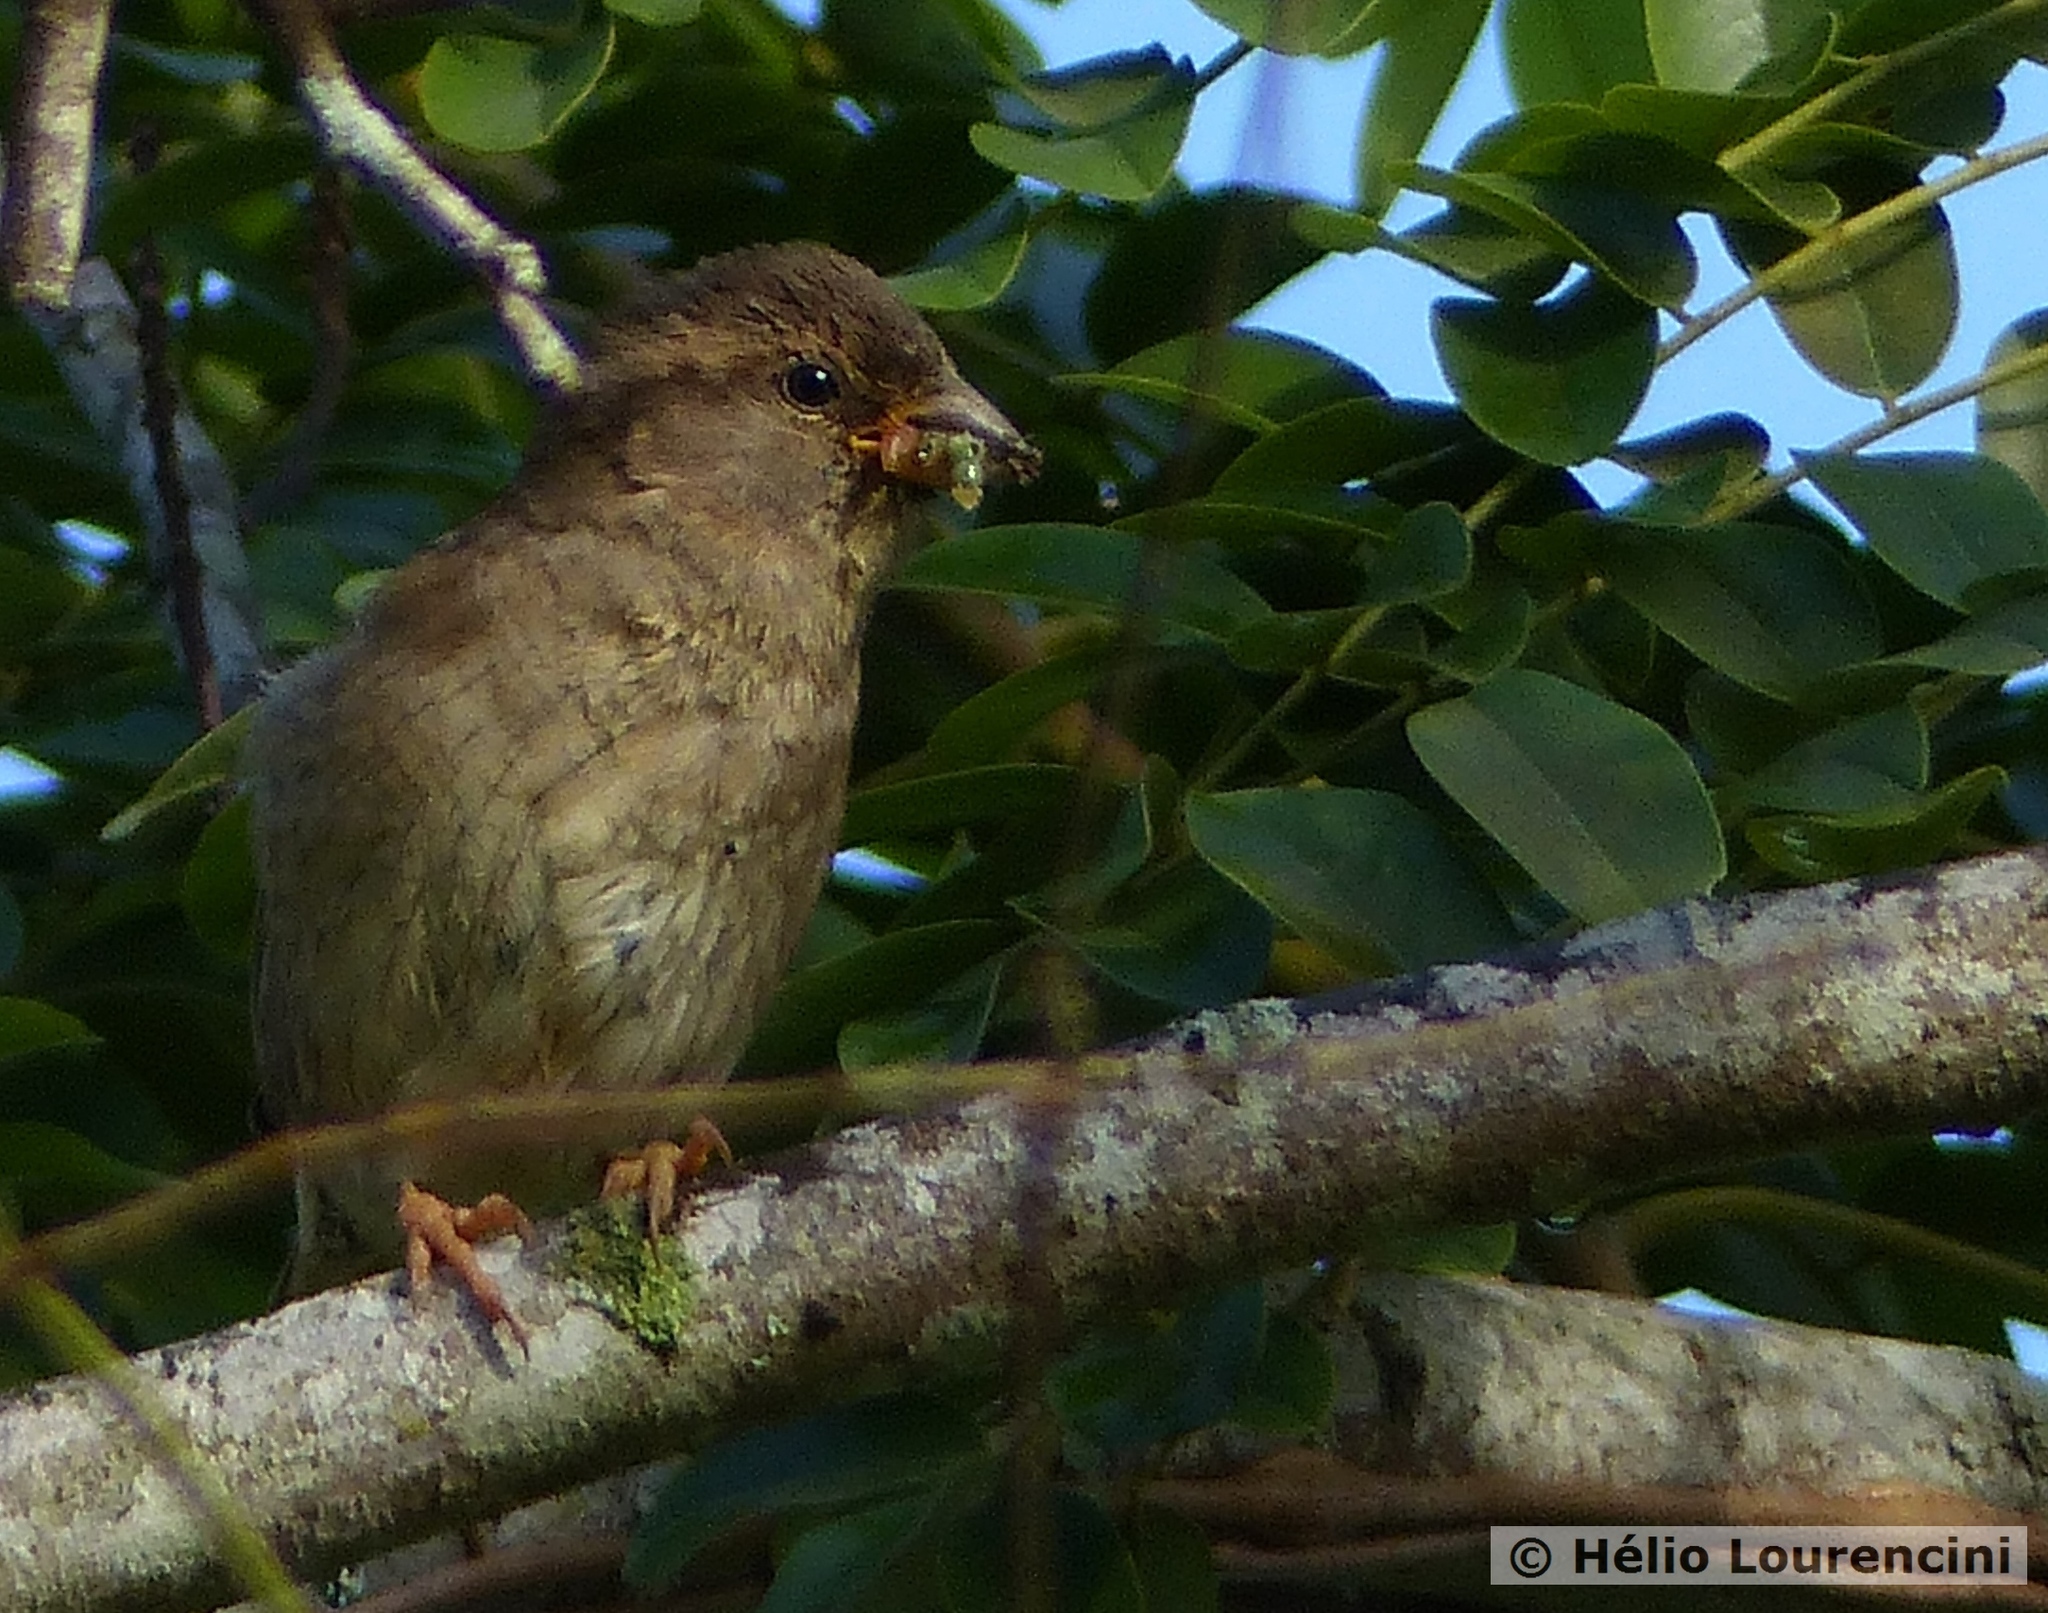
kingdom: Animalia
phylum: Chordata
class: Aves
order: Passeriformes
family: Passeridae
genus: Passer
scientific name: Passer domesticus
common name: House sparrow
